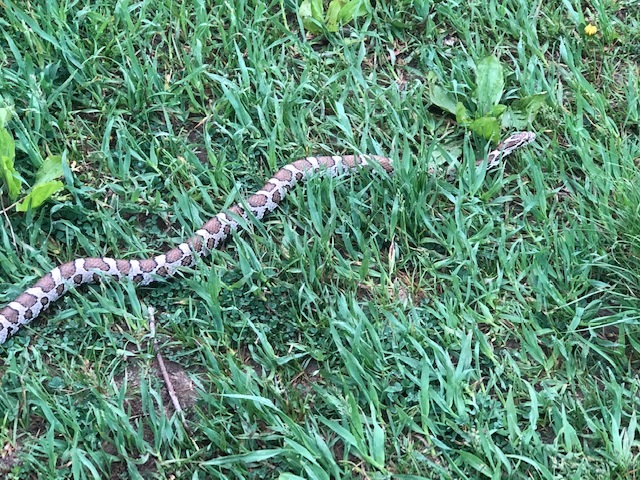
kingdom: Animalia
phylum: Chordata
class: Squamata
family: Colubridae
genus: Lampropeltis
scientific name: Lampropeltis triangulum
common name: Eastern milksnake
